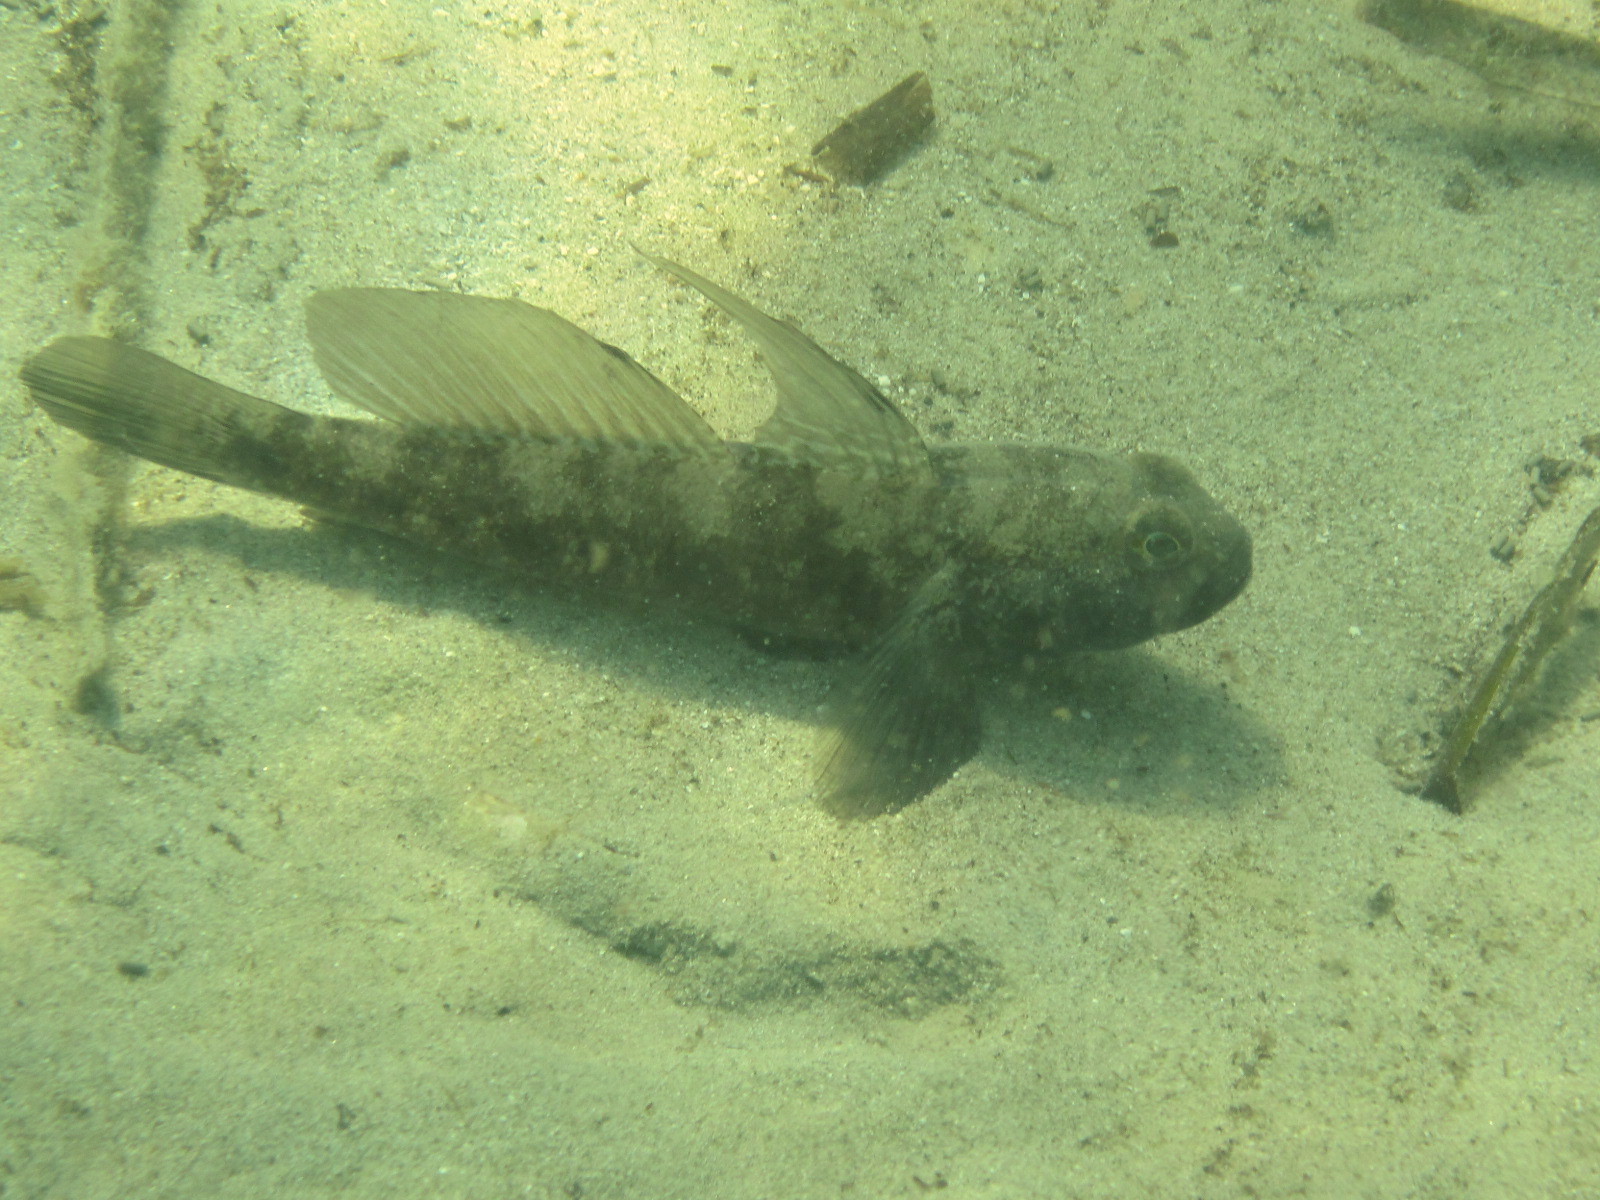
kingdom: Animalia
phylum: Chordata
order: Perciformes
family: Gobiidae
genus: Gobius
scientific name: Gobius niger
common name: Black goby
